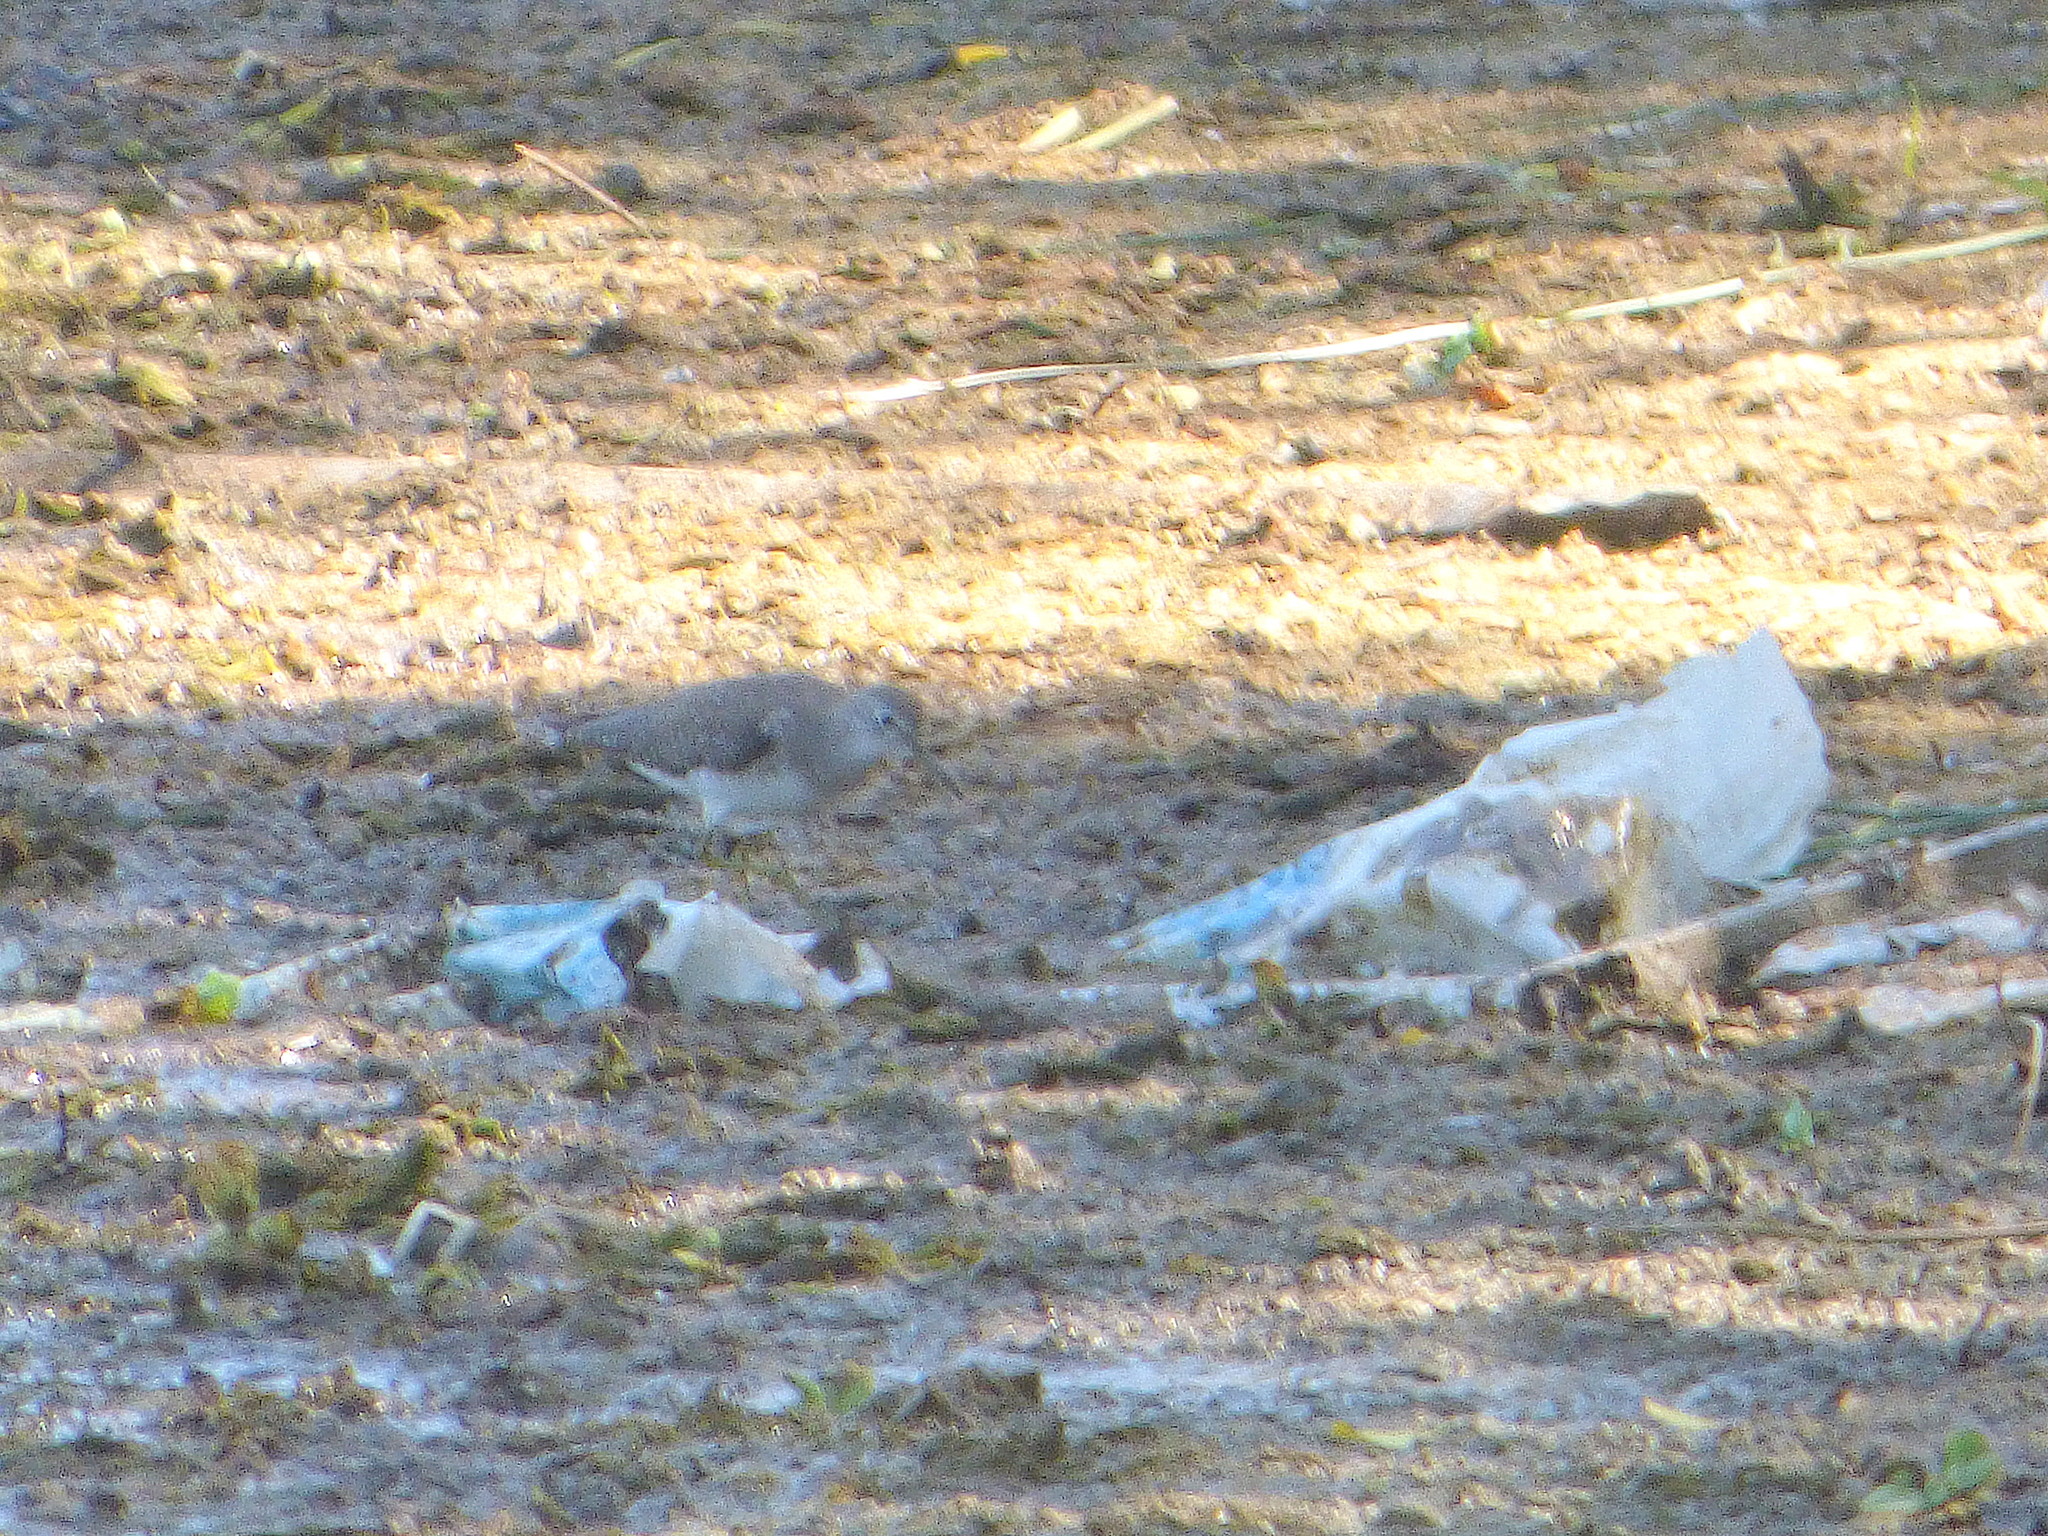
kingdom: Animalia
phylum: Chordata
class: Aves
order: Charadriiformes
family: Scolopacidae
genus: Tringa
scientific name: Tringa solitaria
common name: Solitary sandpiper
